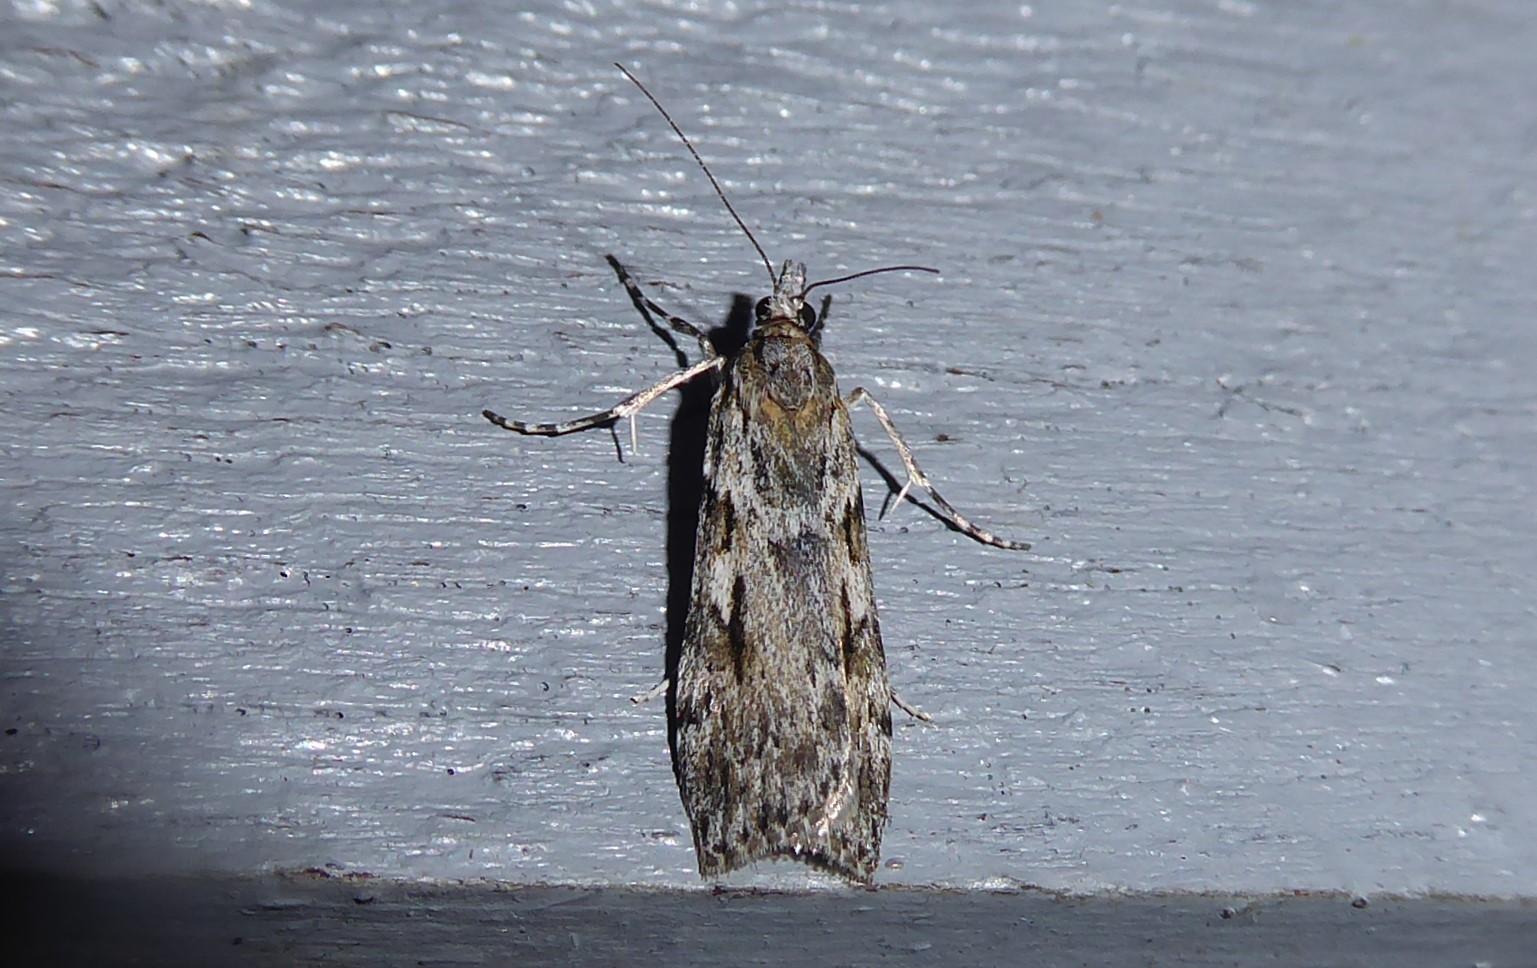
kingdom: Animalia
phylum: Arthropoda
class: Insecta
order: Lepidoptera
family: Crambidae
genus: Scoparia
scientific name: Scoparia halopis
